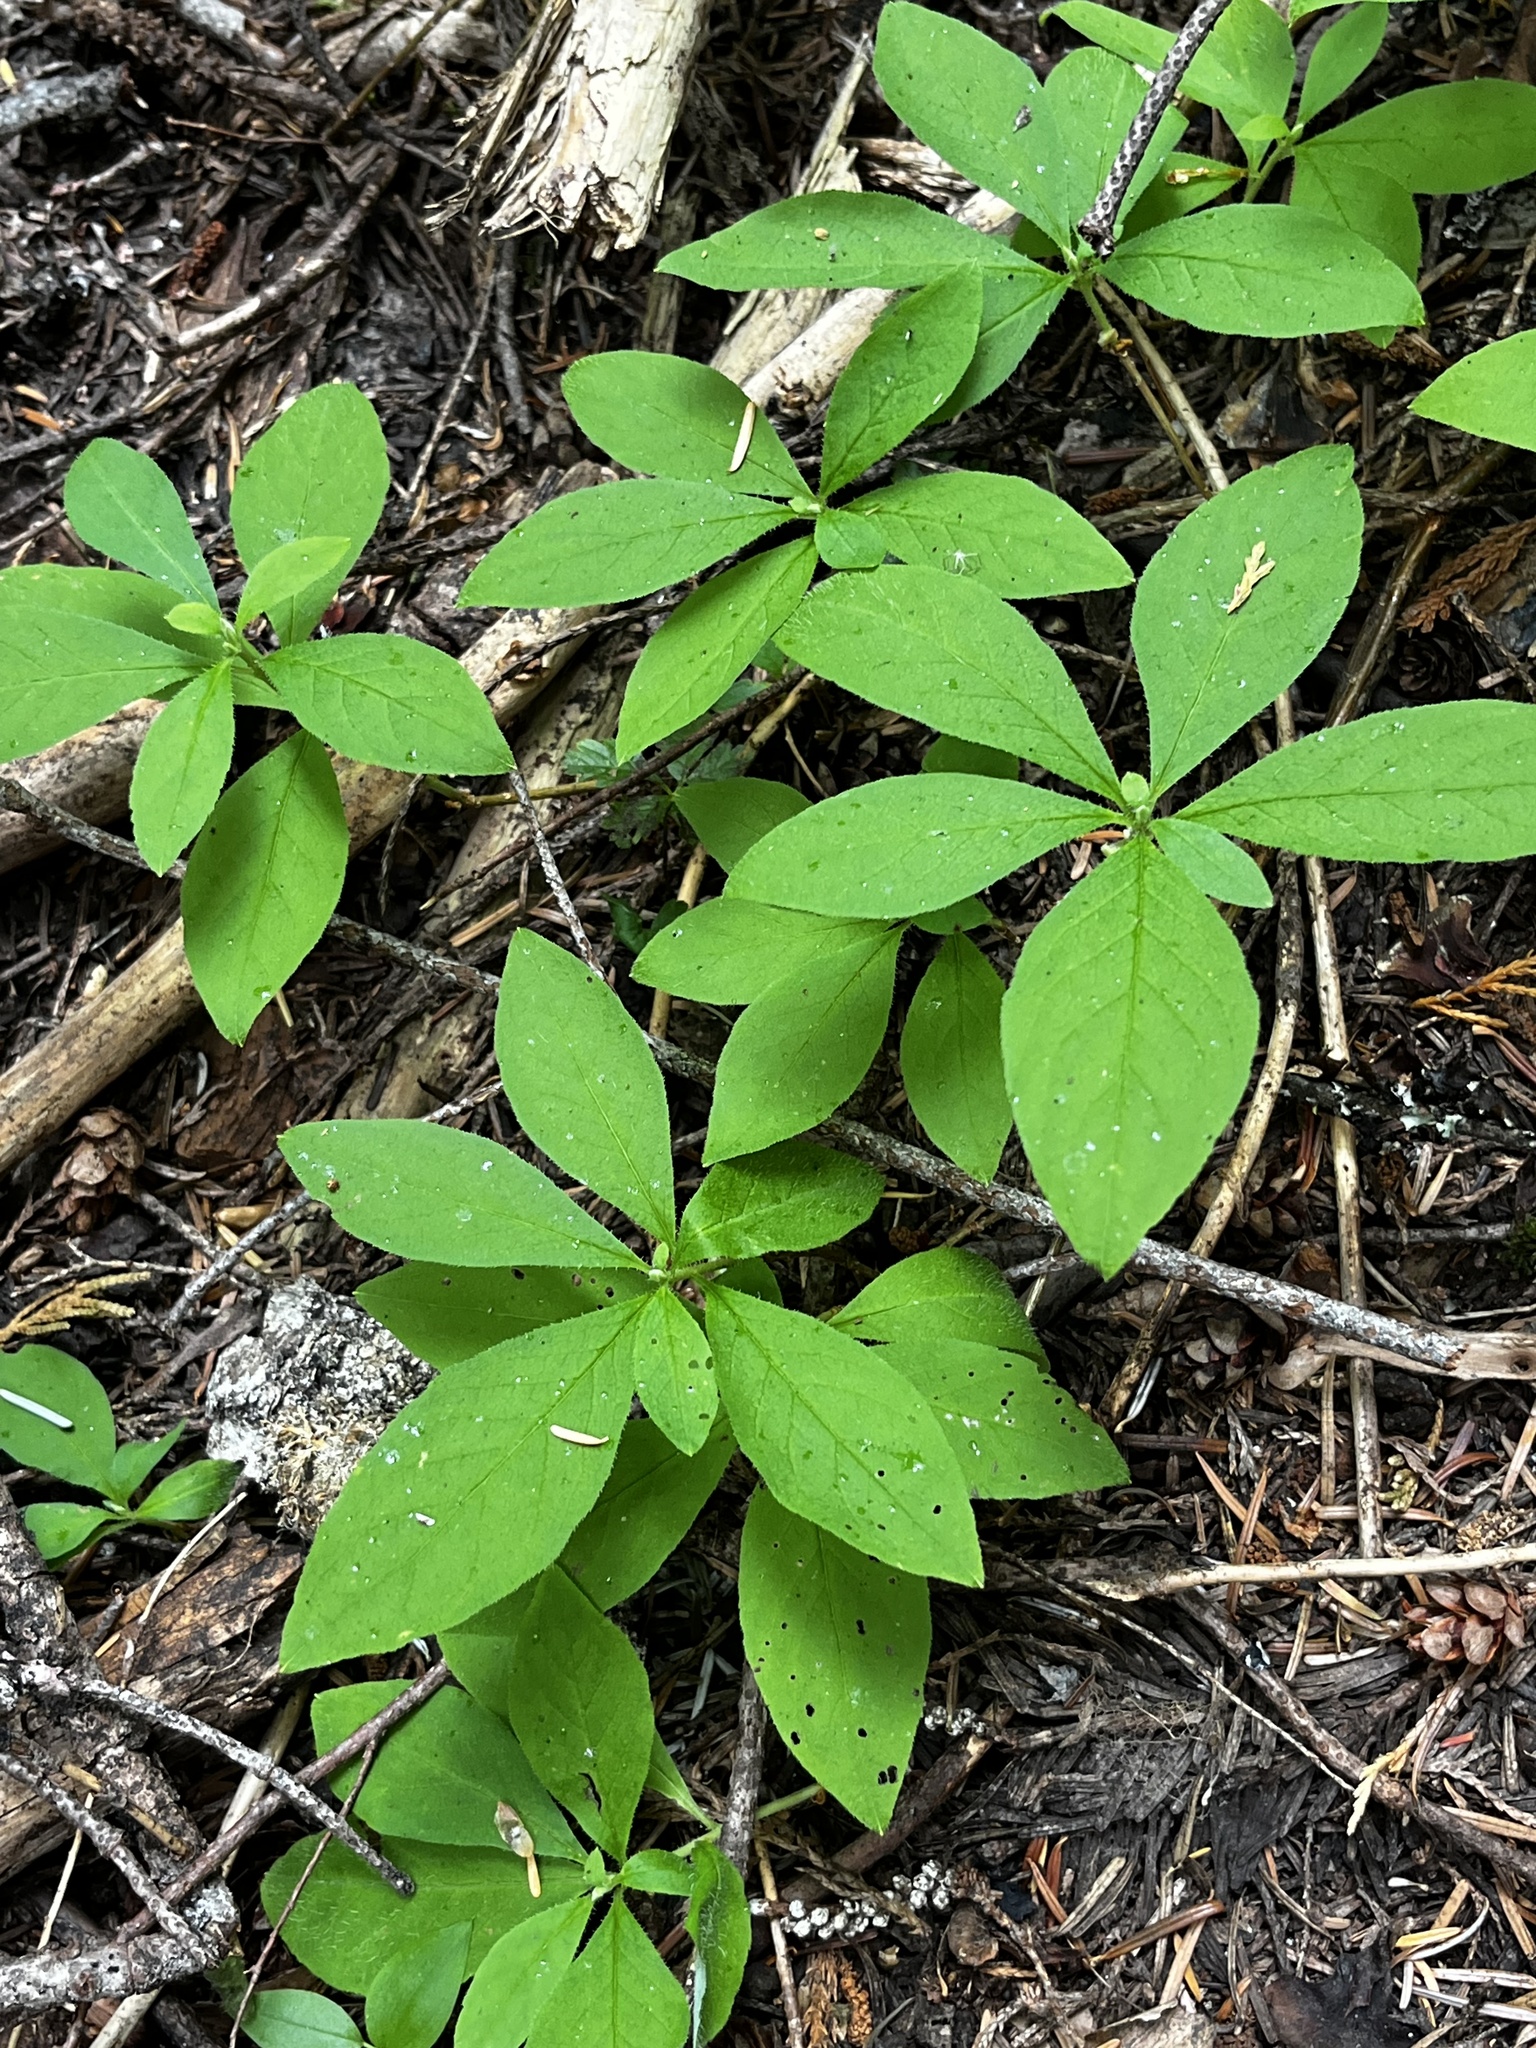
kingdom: Plantae
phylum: Tracheophyta
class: Magnoliopsida
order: Ericales
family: Primulaceae
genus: Lysimachia
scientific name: Lysimachia latifolia
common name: Pacific starflower
